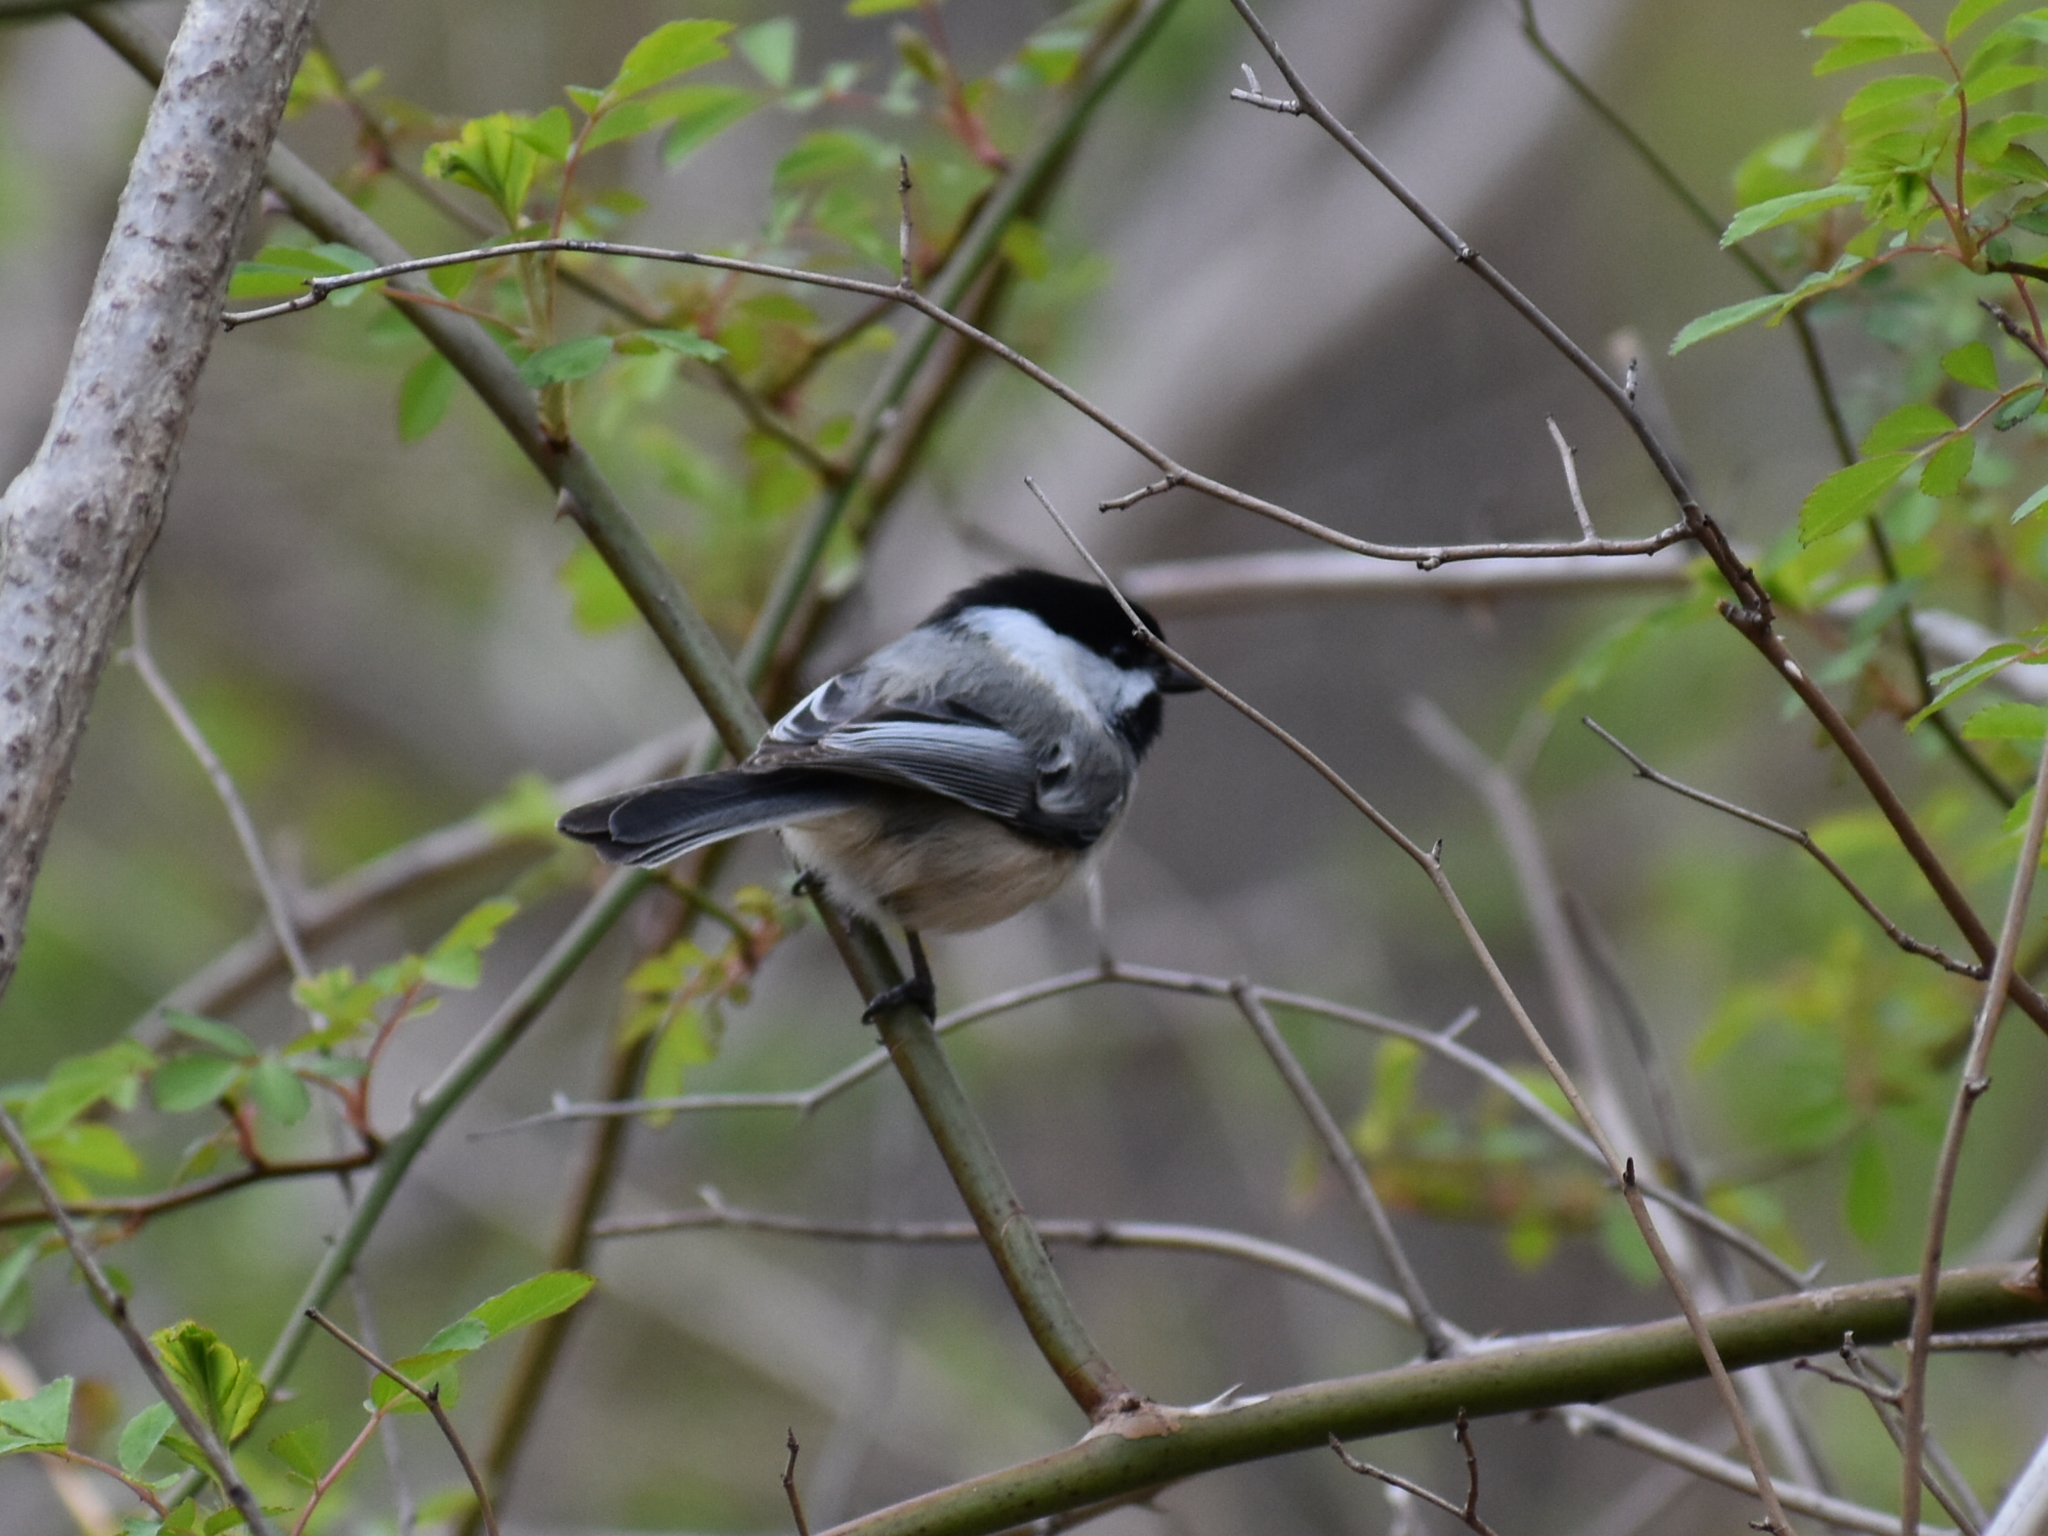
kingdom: Animalia
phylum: Chordata
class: Aves
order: Passeriformes
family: Paridae
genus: Poecile
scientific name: Poecile atricapillus
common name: Black-capped chickadee
